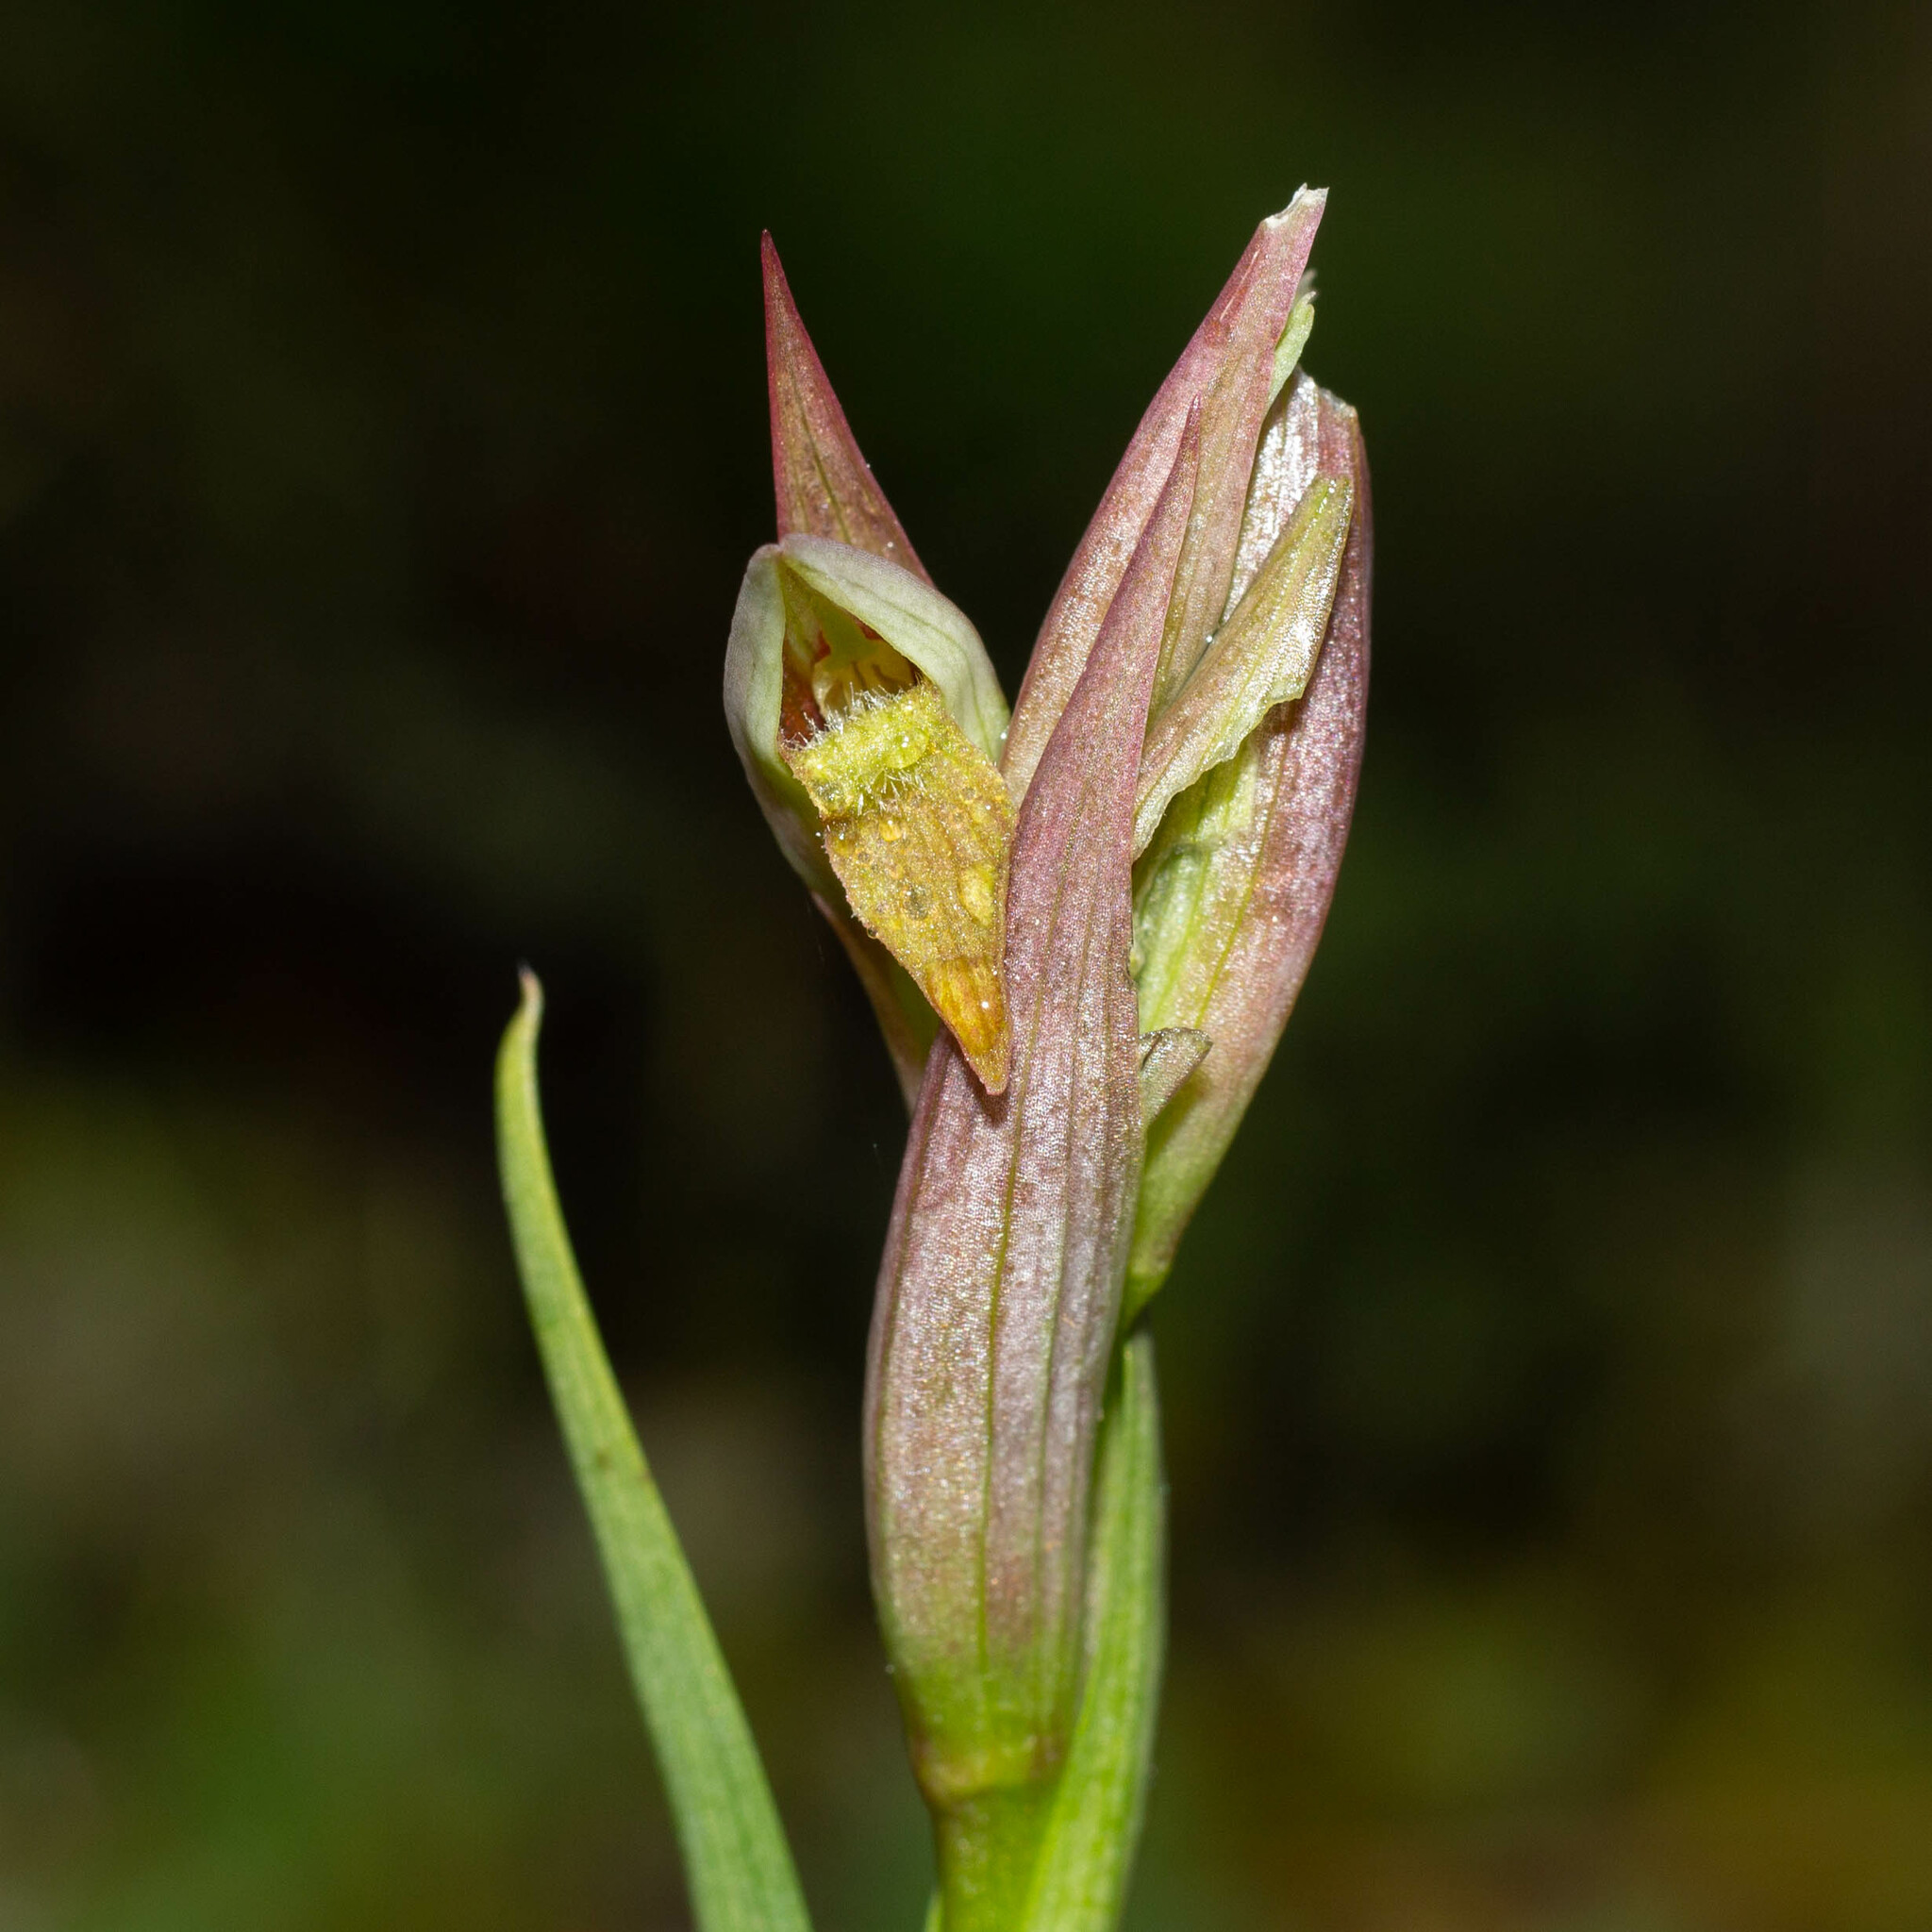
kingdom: Plantae
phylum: Tracheophyta
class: Liliopsida
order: Asparagales
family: Orchidaceae
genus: Serapias
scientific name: Serapias parviflora
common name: Small-flowered tongue-orchid
